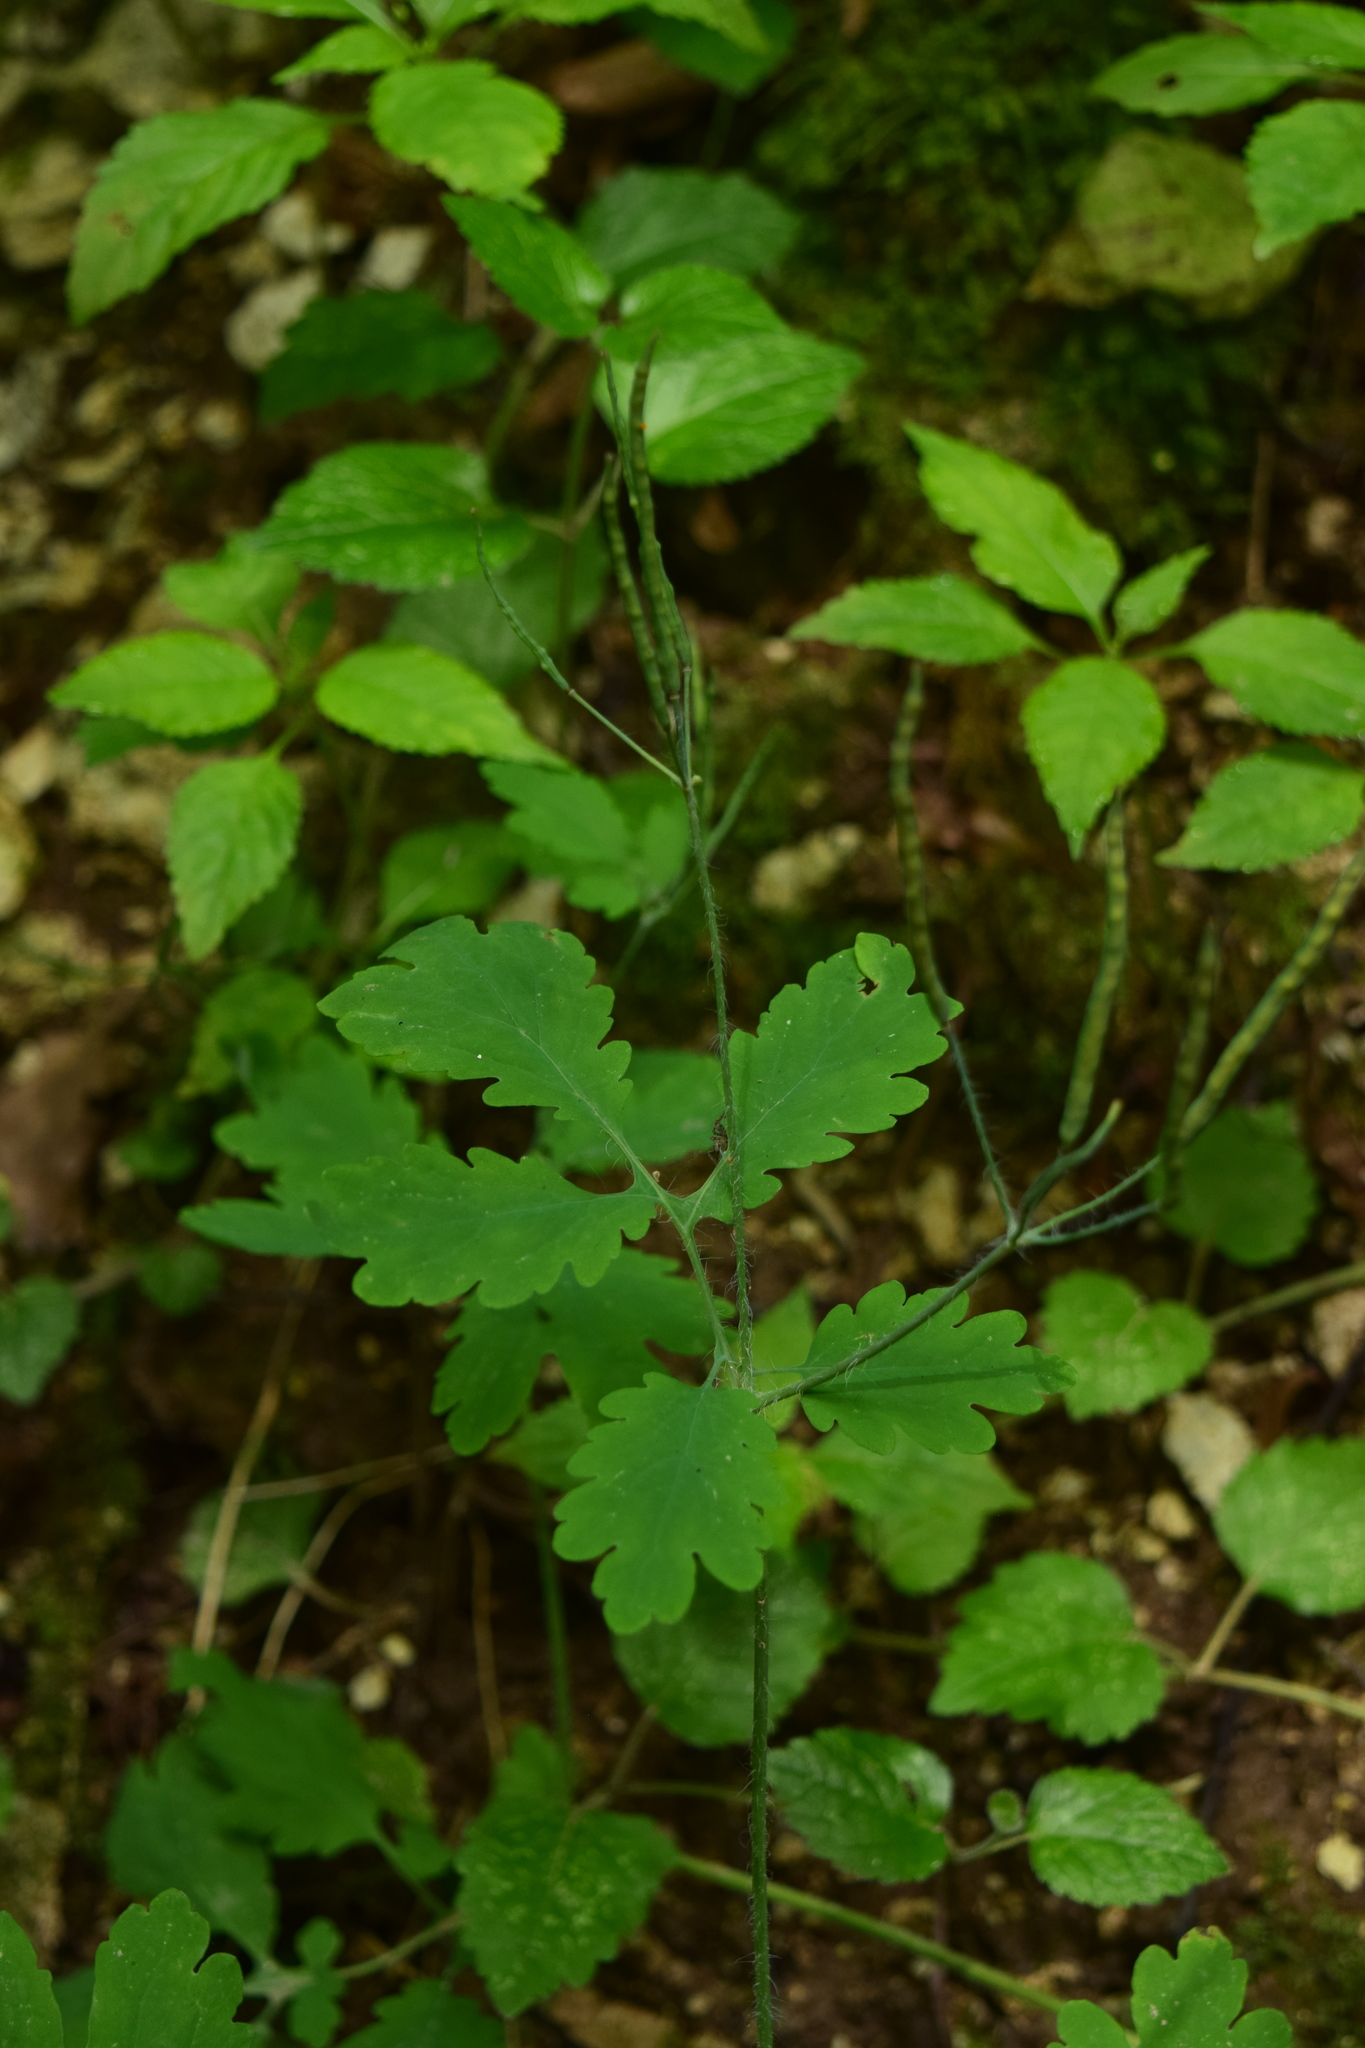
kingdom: Plantae
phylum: Tracheophyta
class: Magnoliopsida
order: Ranunculales
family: Papaveraceae
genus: Chelidonium
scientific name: Chelidonium majus
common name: Greater celandine
